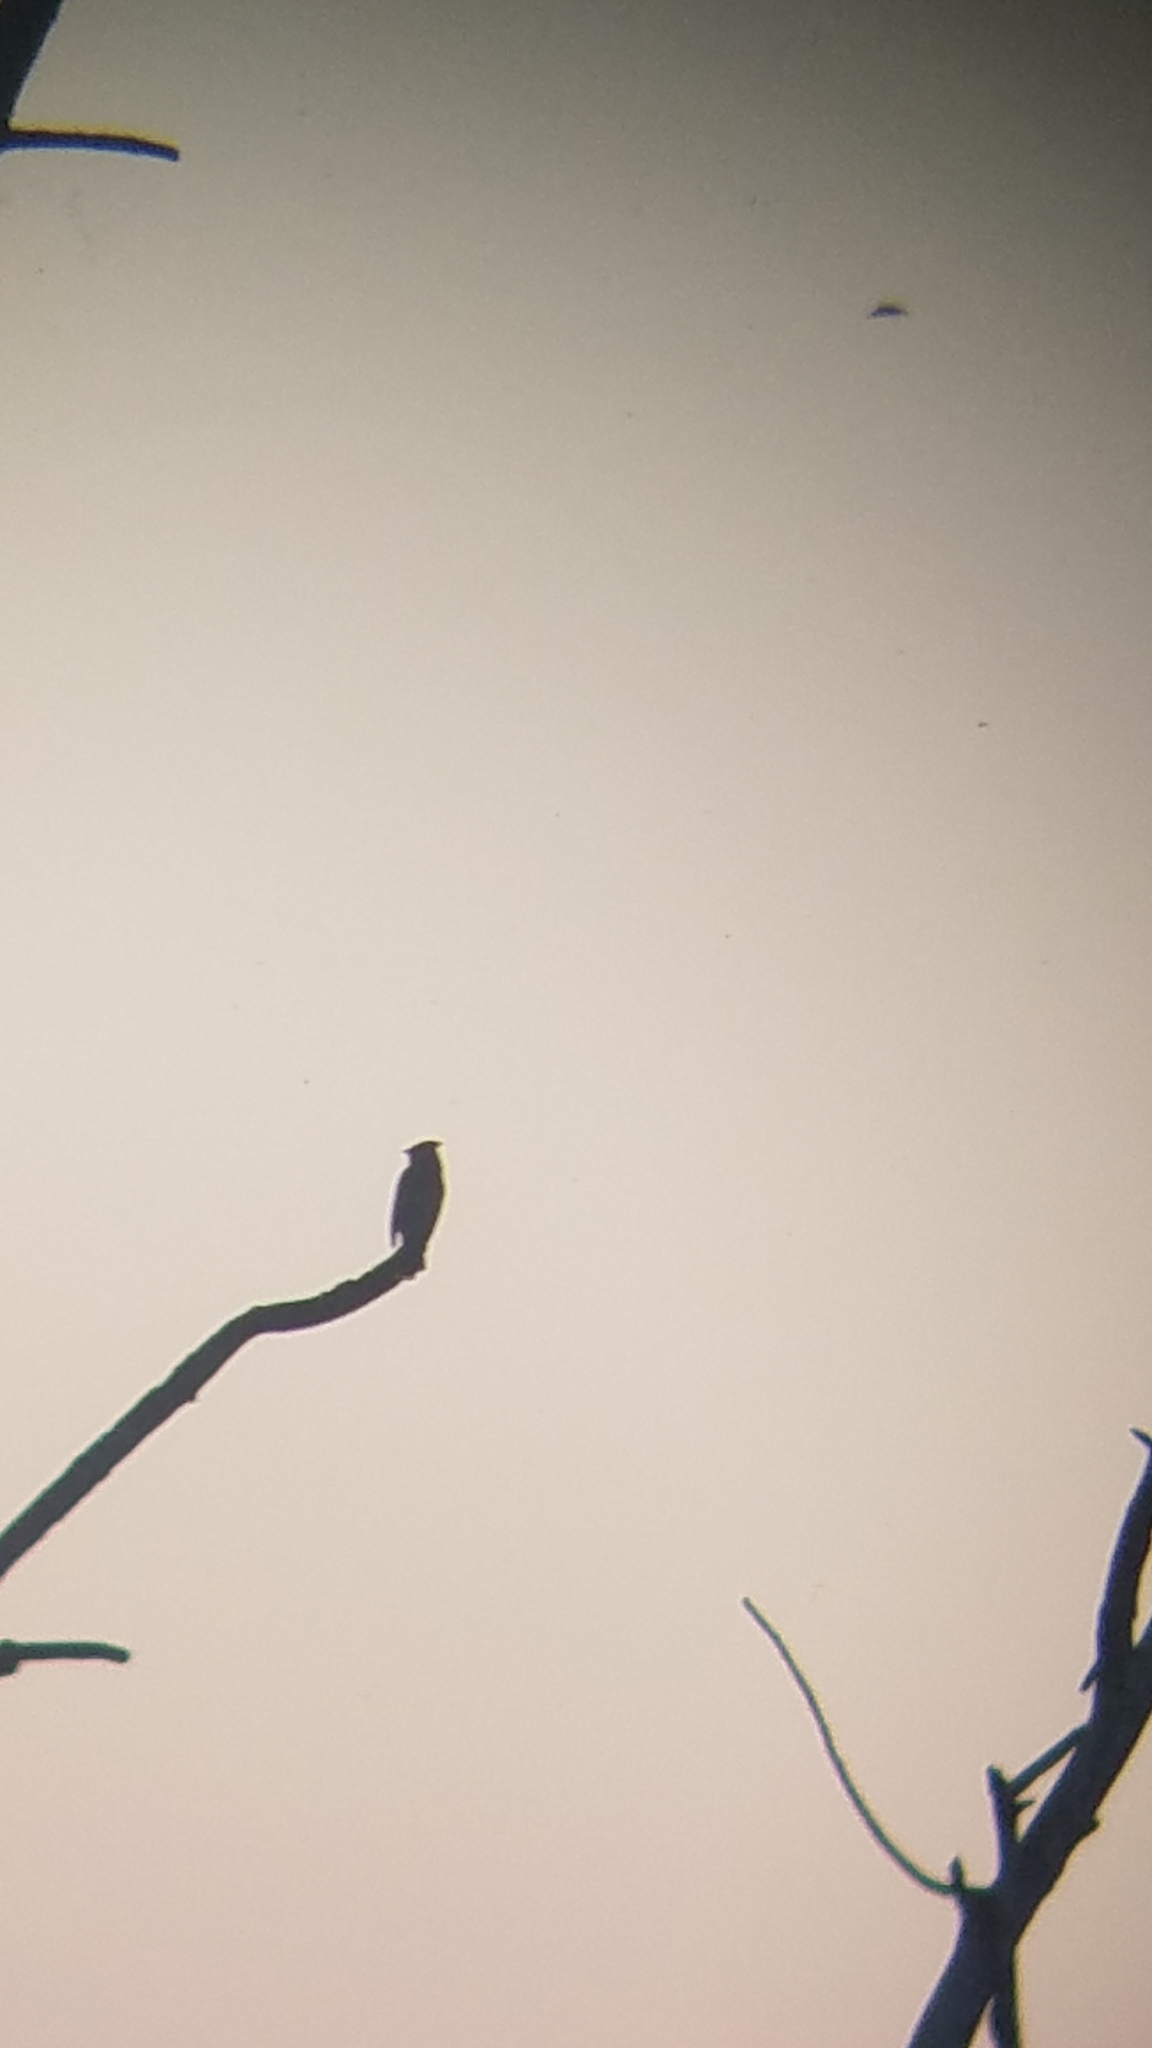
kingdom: Animalia
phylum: Chordata
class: Aves
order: Passeriformes
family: Bombycillidae
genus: Bombycilla
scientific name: Bombycilla cedrorum
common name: Cedar waxwing
